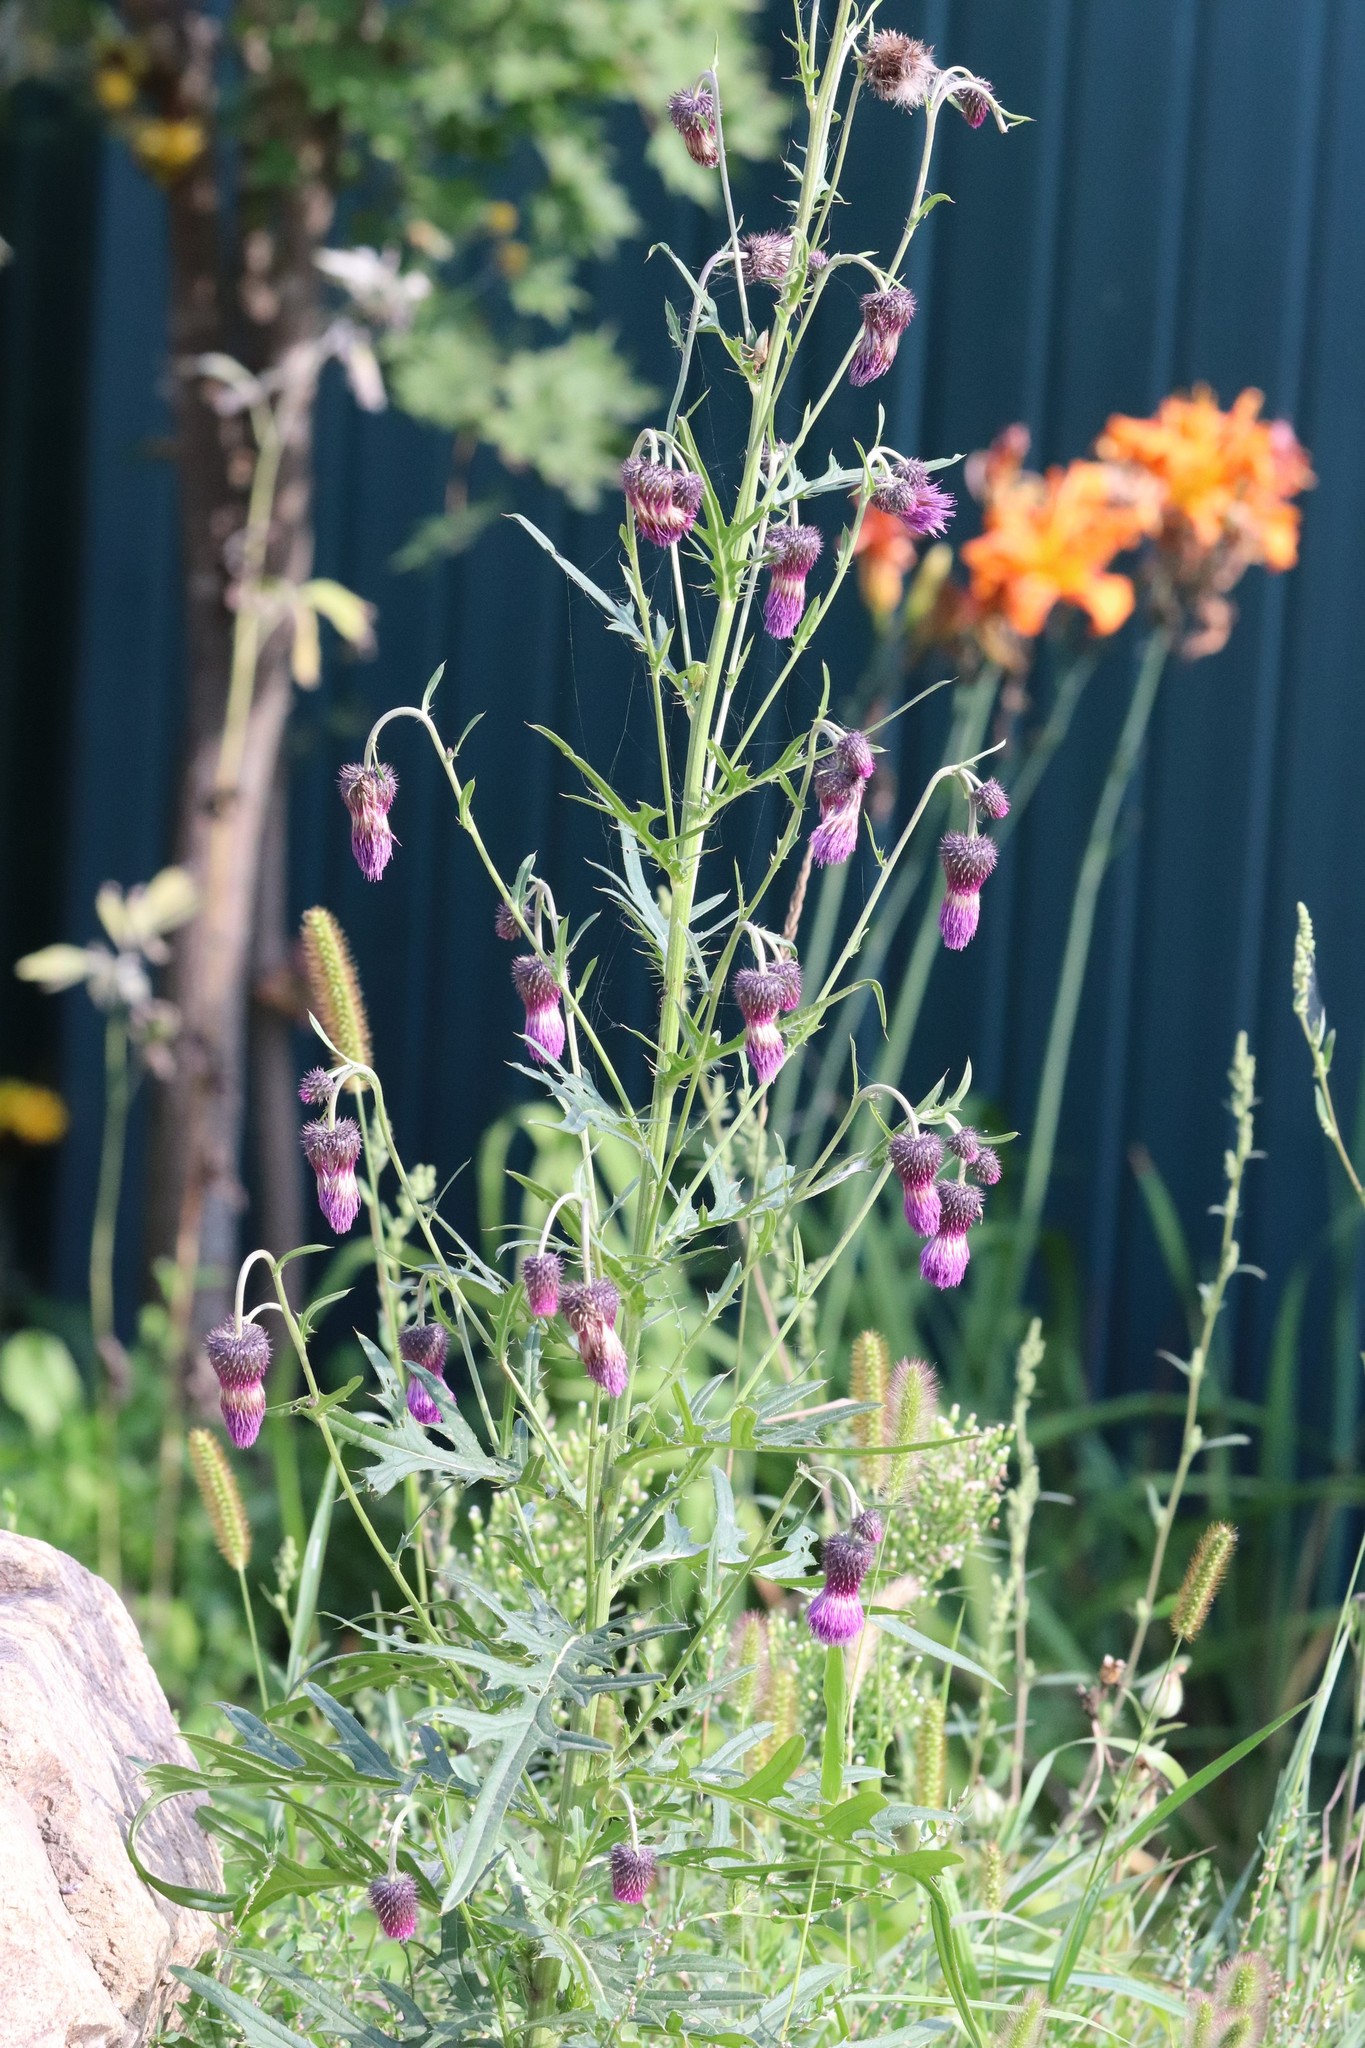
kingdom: Plantae
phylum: Tracheophyta
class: Magnoliopsida
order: Asterales
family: Asteraceae
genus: Cirsium
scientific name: Cirsium pendulum
